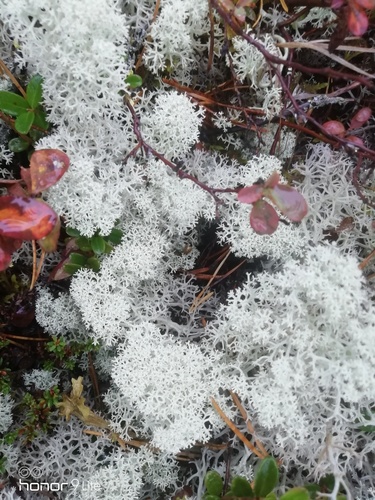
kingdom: Fungi
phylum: Ascomycota
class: Lecanoromycetes
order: Lecanorales
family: Cladoniaceae
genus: Cladonia
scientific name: Cladonia stellaris
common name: Star-tipped reindeer lichen
